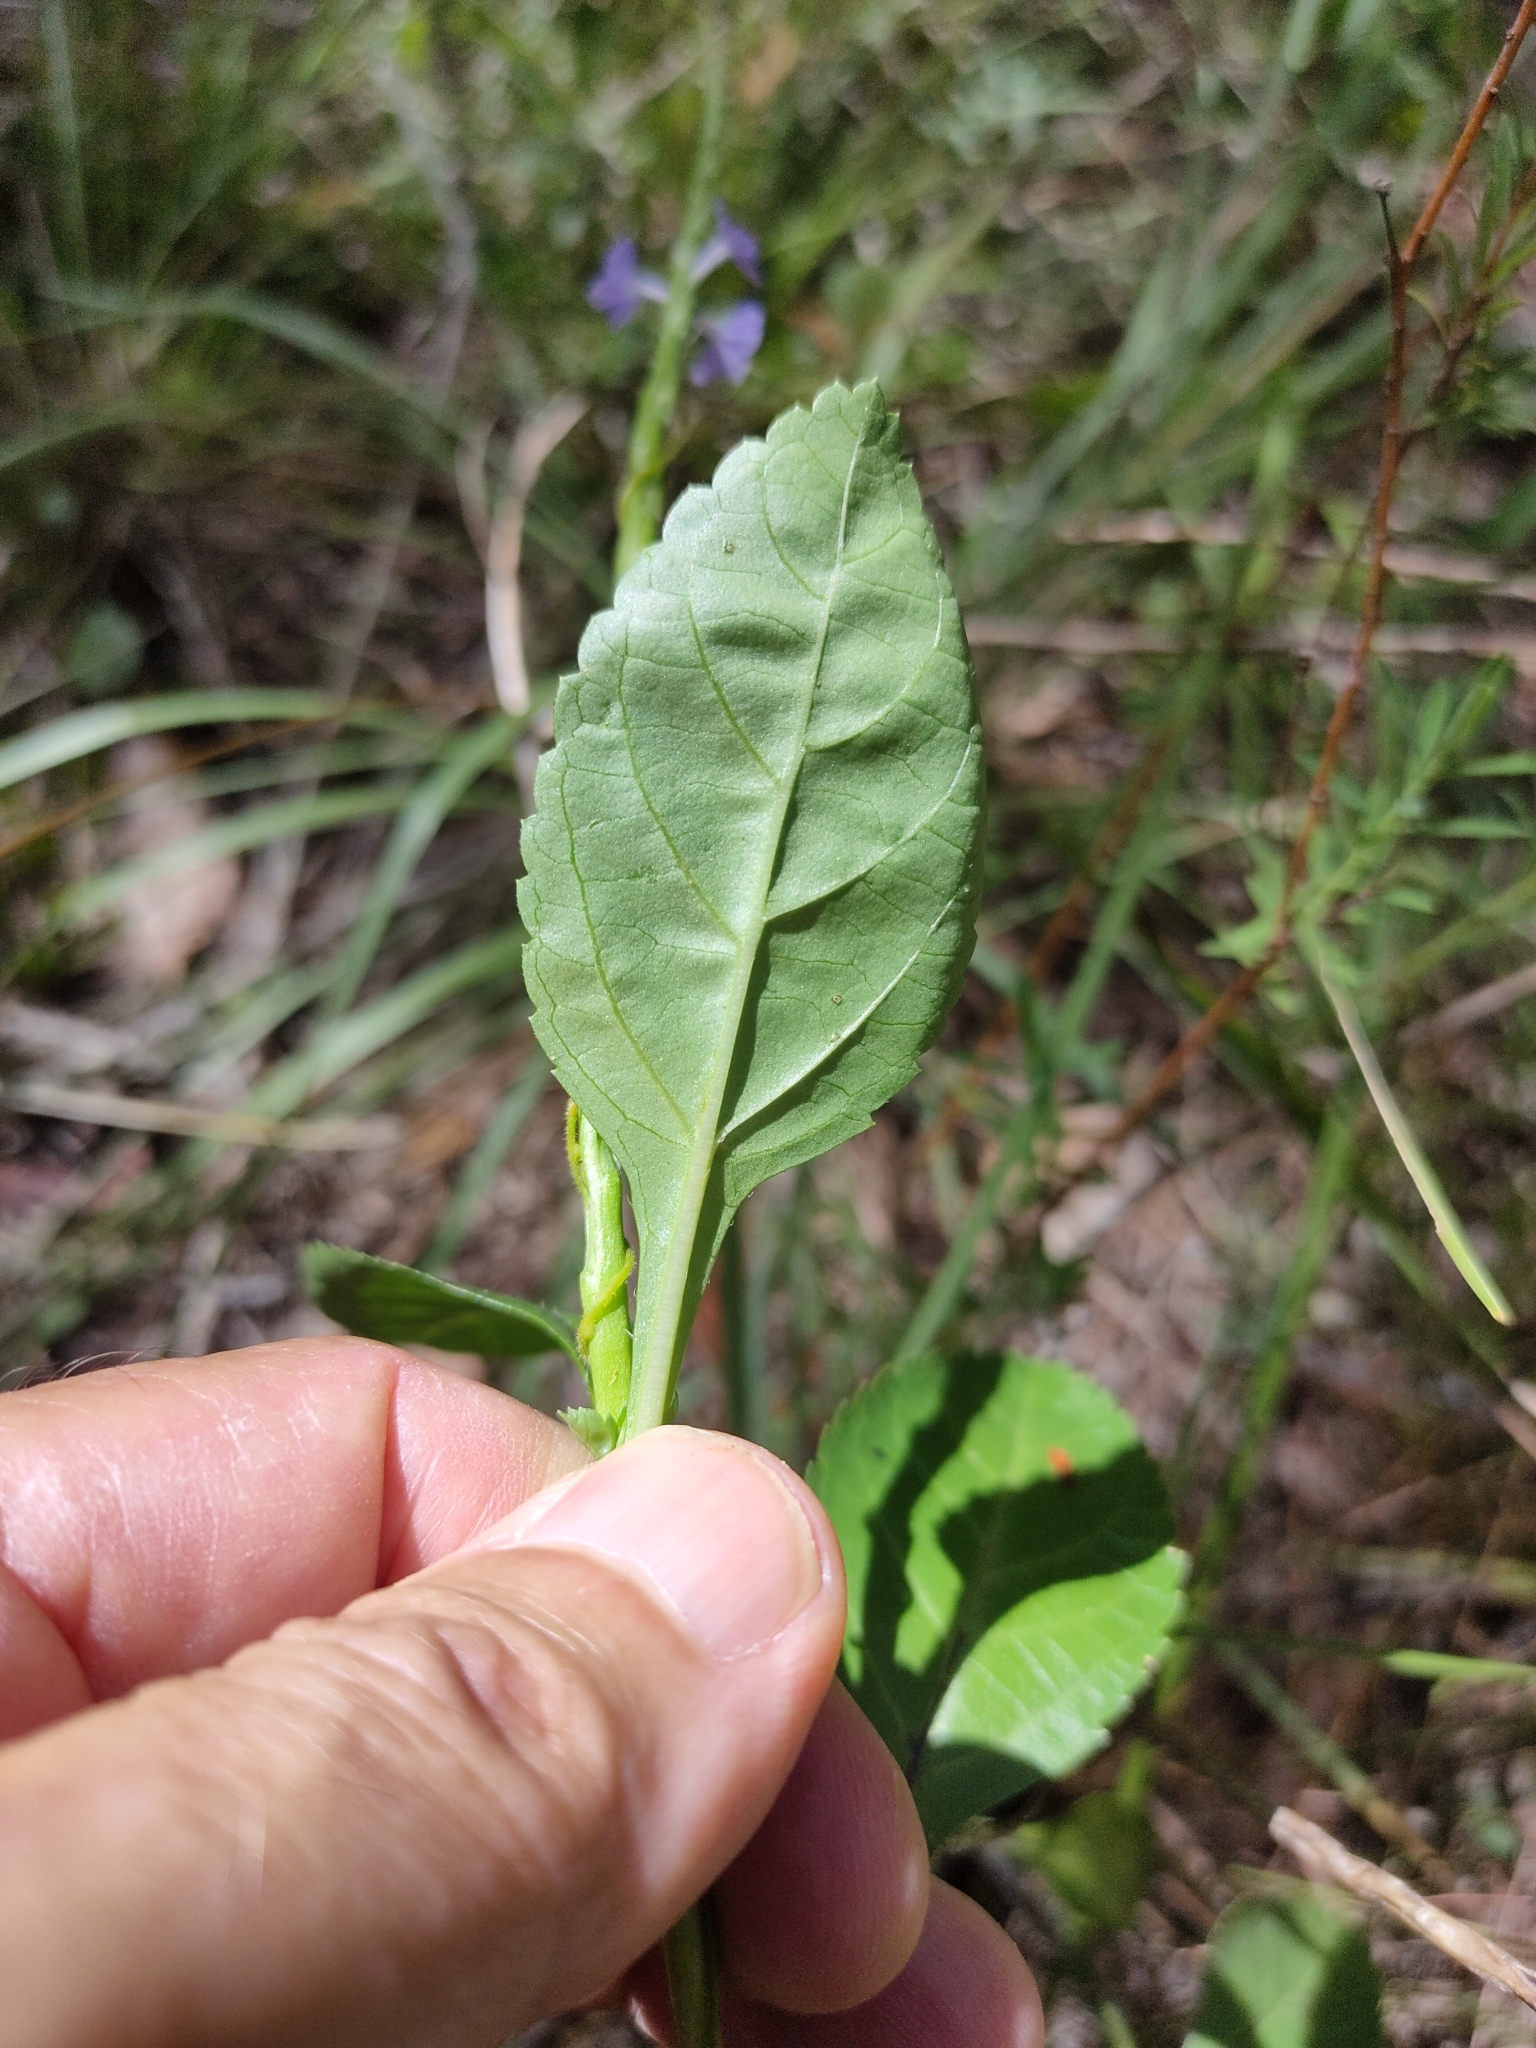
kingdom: Plantae
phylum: Tracheophyta
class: Magnoliopsida
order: Lamiales
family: Verbenaceae
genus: Stachytarpheta
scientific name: Stachytarpheta jamaicensis
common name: Light-blue snakeweed
